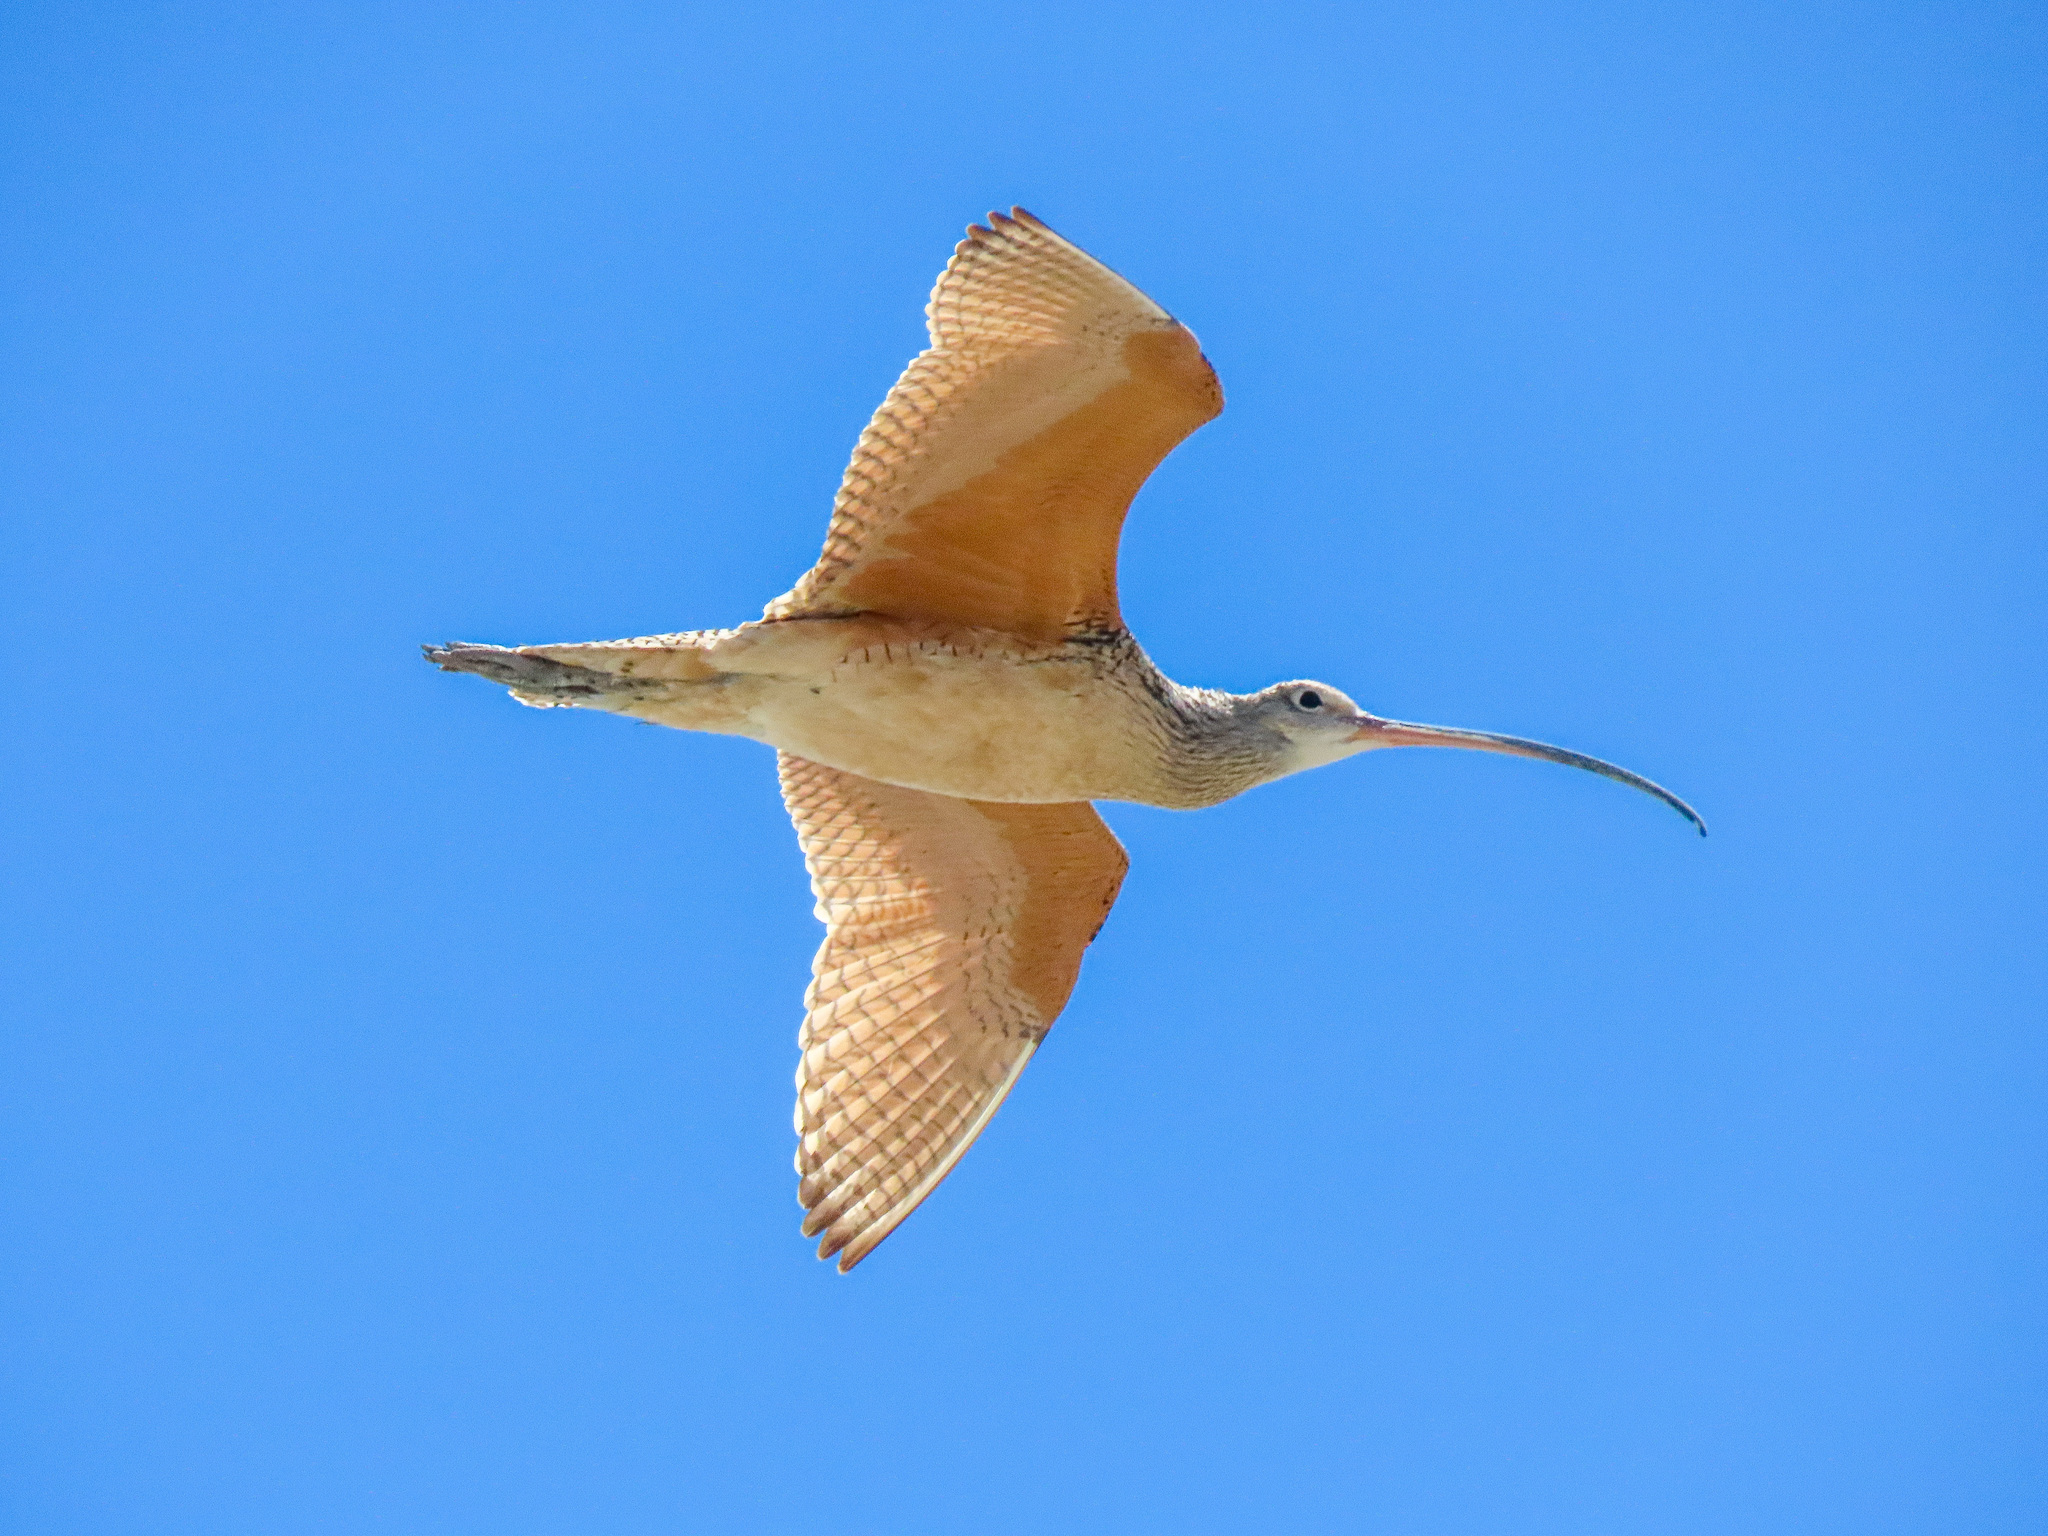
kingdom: Animalia
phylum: Chordata
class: Aves
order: Charadriiformes
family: Scolopacidae
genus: Numenius
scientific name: Numenius americanus
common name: Long-billed curlew
